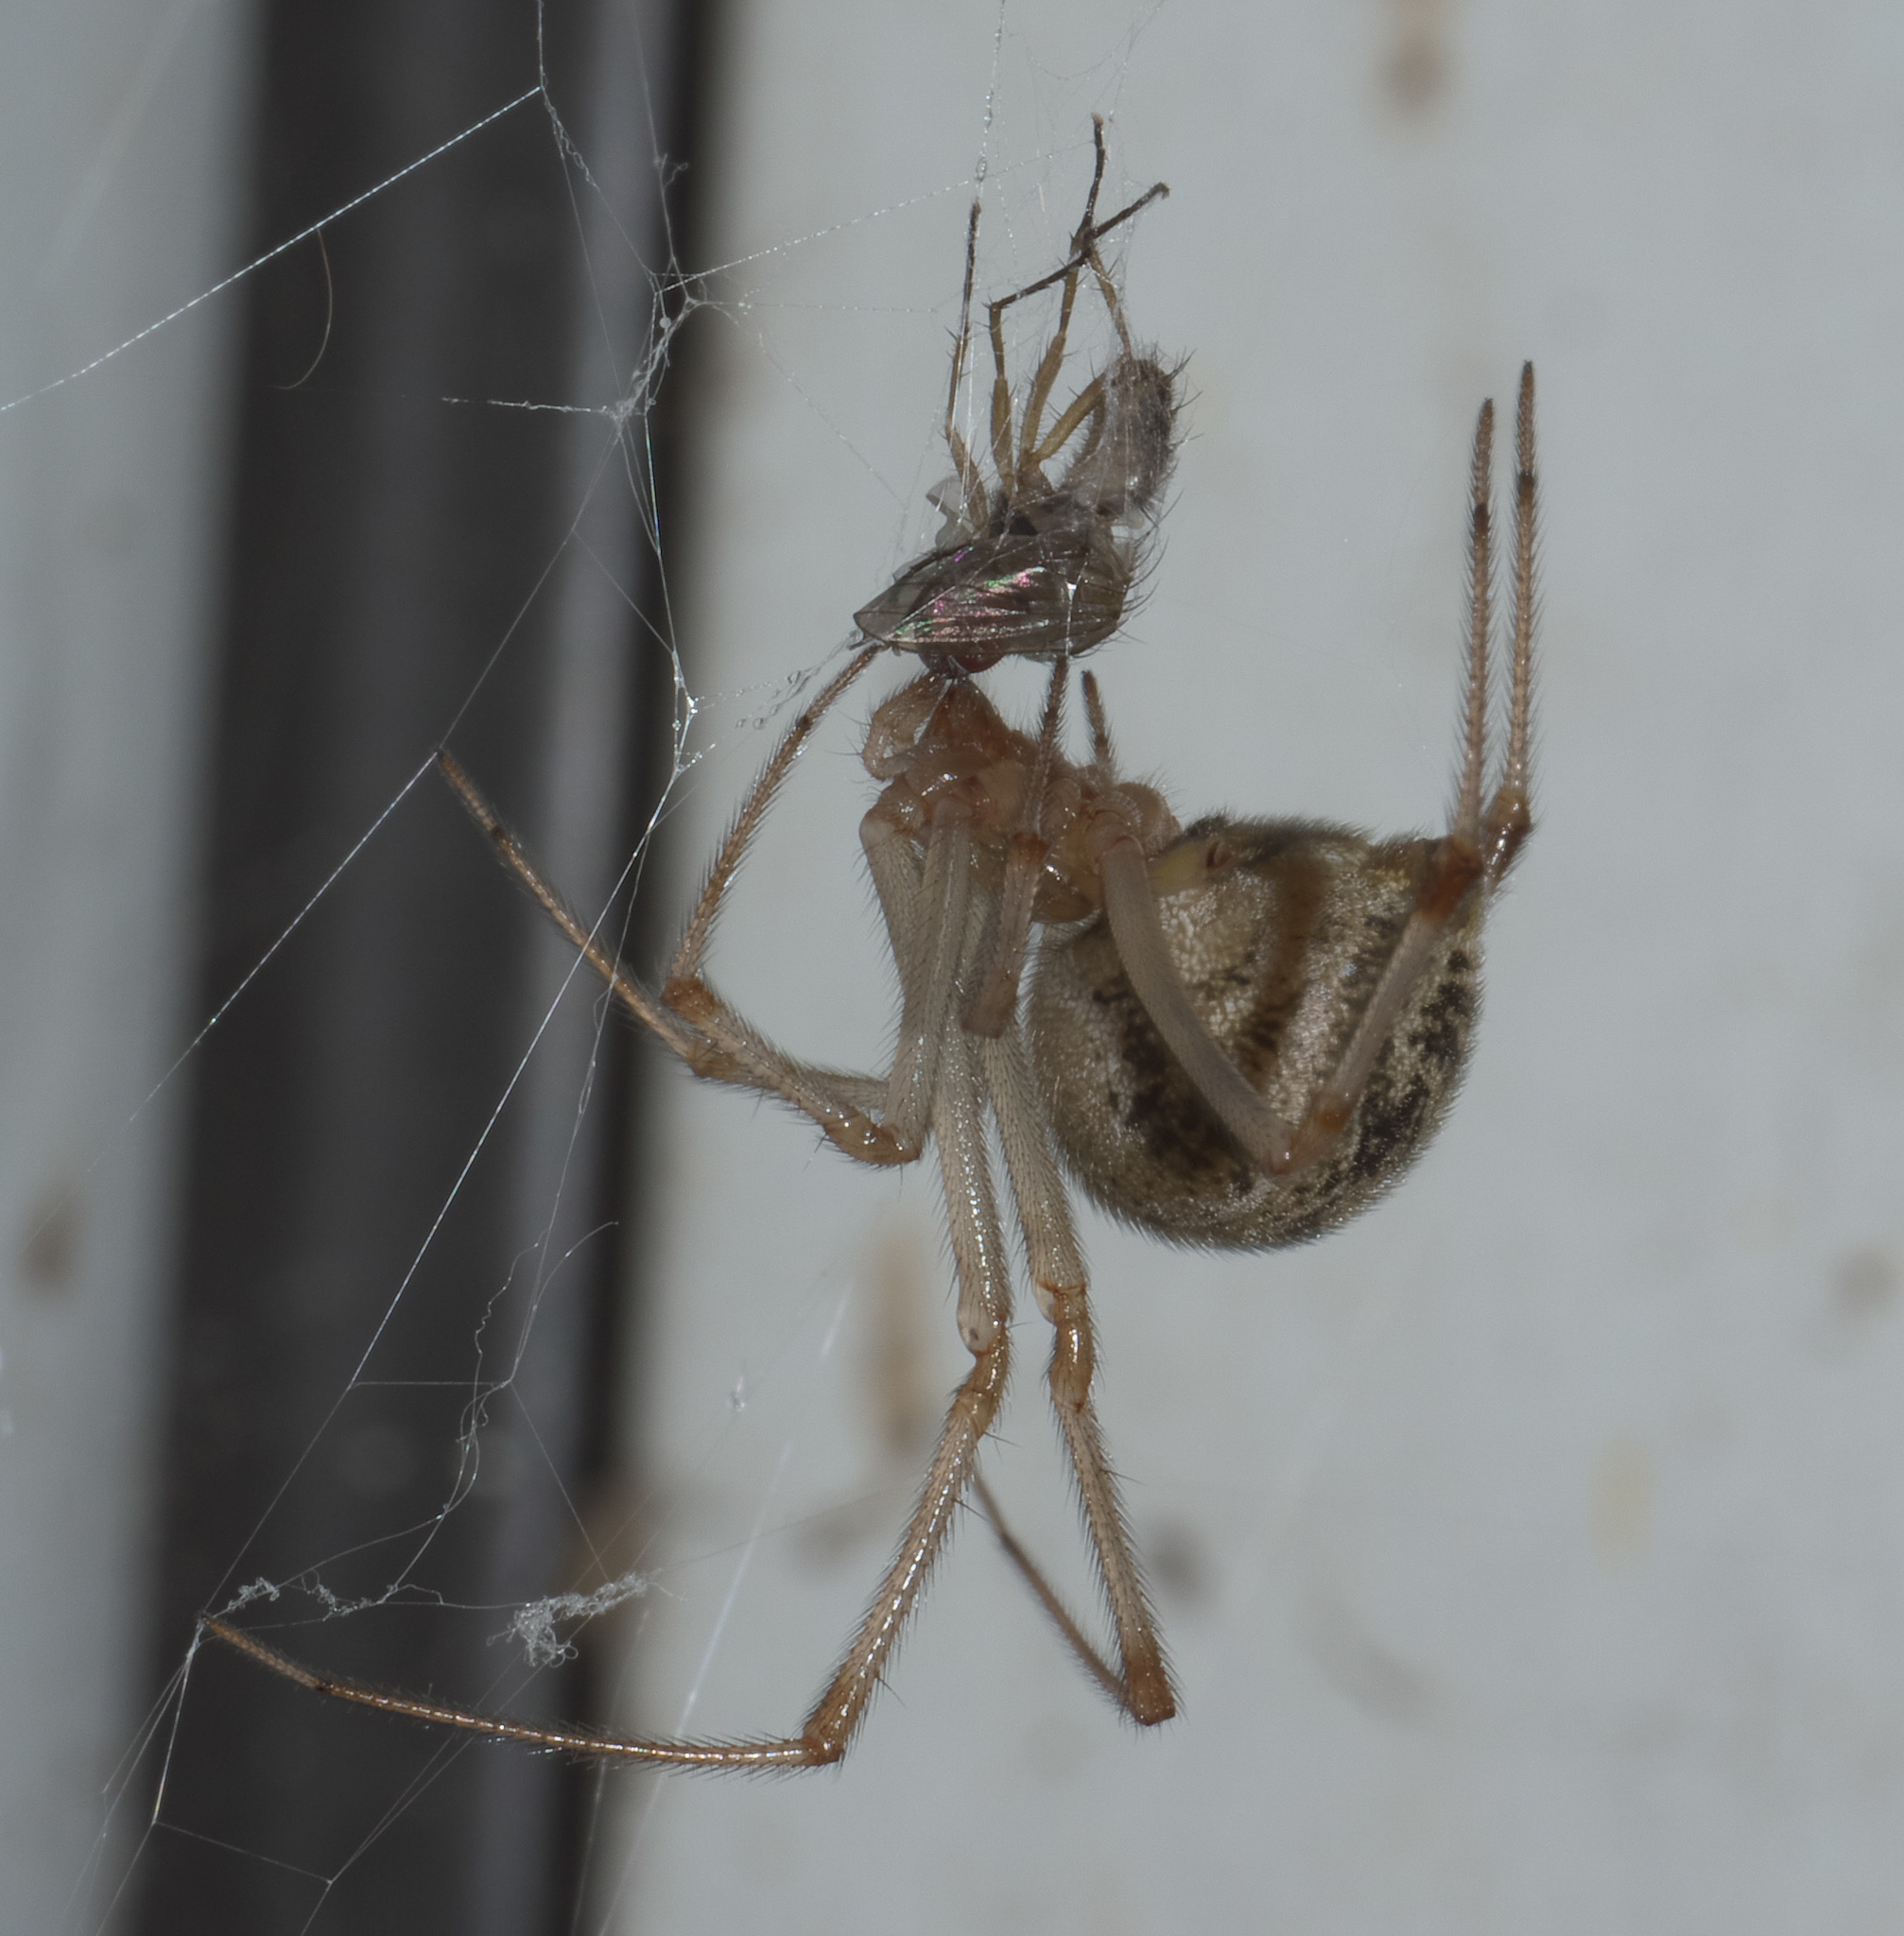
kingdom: Animalia
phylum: Arthropoda
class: Arachnida
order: Araneae
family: Theridiidae
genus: Parasteatoda
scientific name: Parasteatoda tepidariorum
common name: Common house spider
